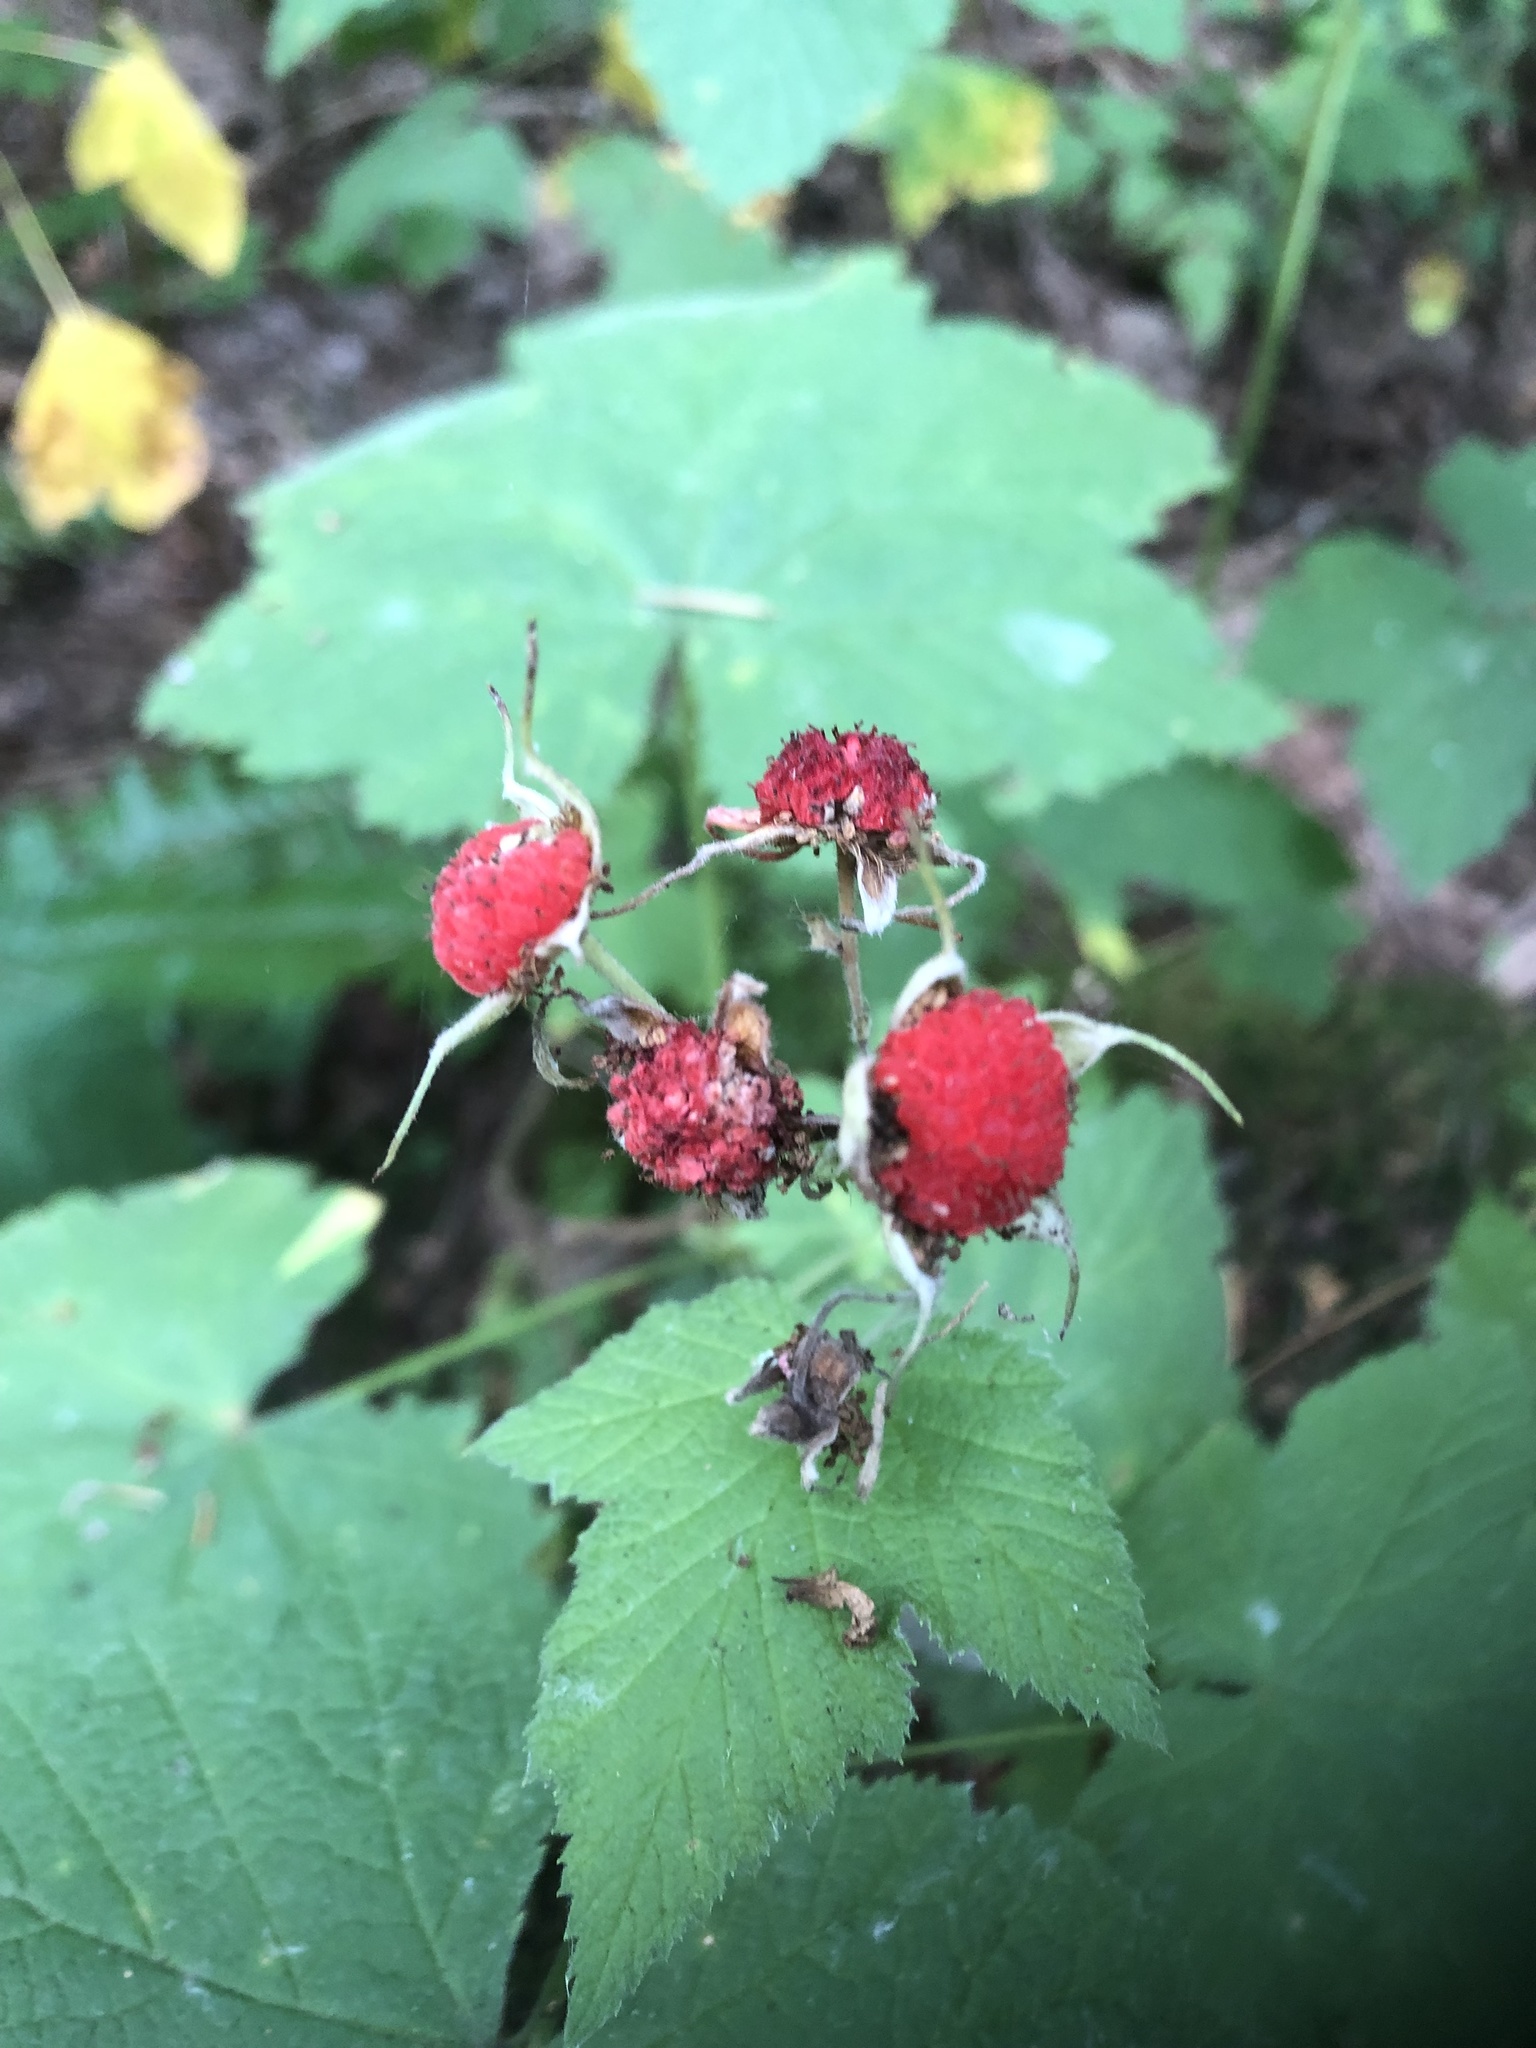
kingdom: Plantae
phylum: Tracheophyta
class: Magnoliopsida
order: Rosales
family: Rosaceae
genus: Rubus
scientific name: Rubus parviflorus
